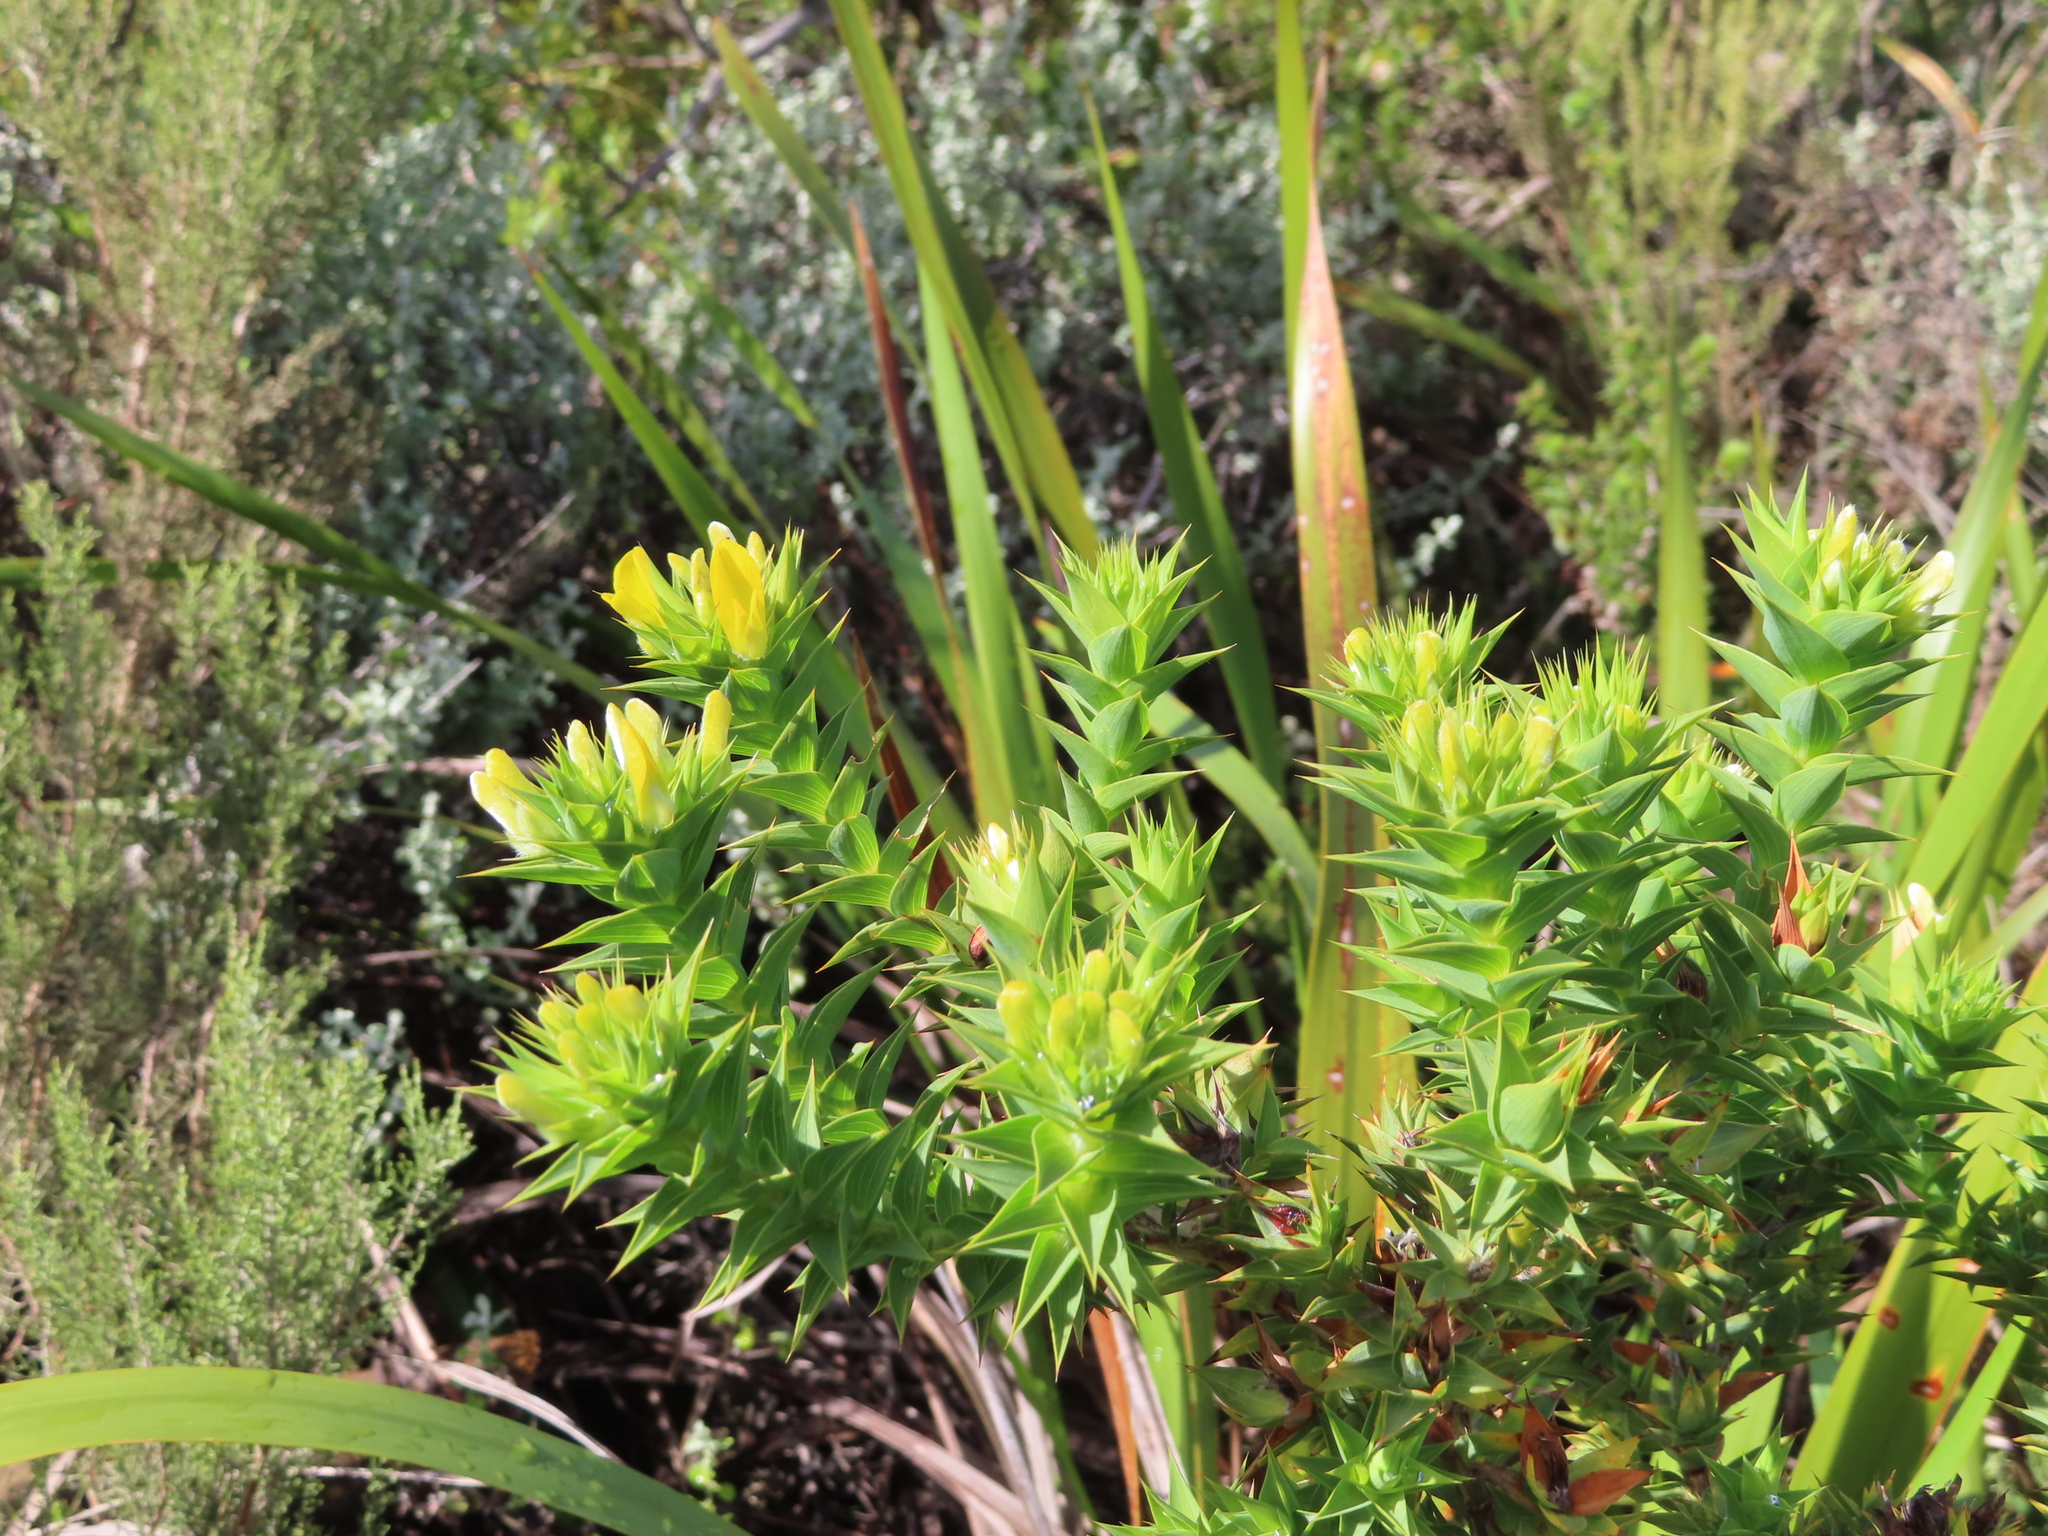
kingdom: Plantae
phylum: Tracheophyta
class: Magnoliopsida
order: Fabales
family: Fabaceae
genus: Aspalathus
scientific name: Aspalathus cordata
